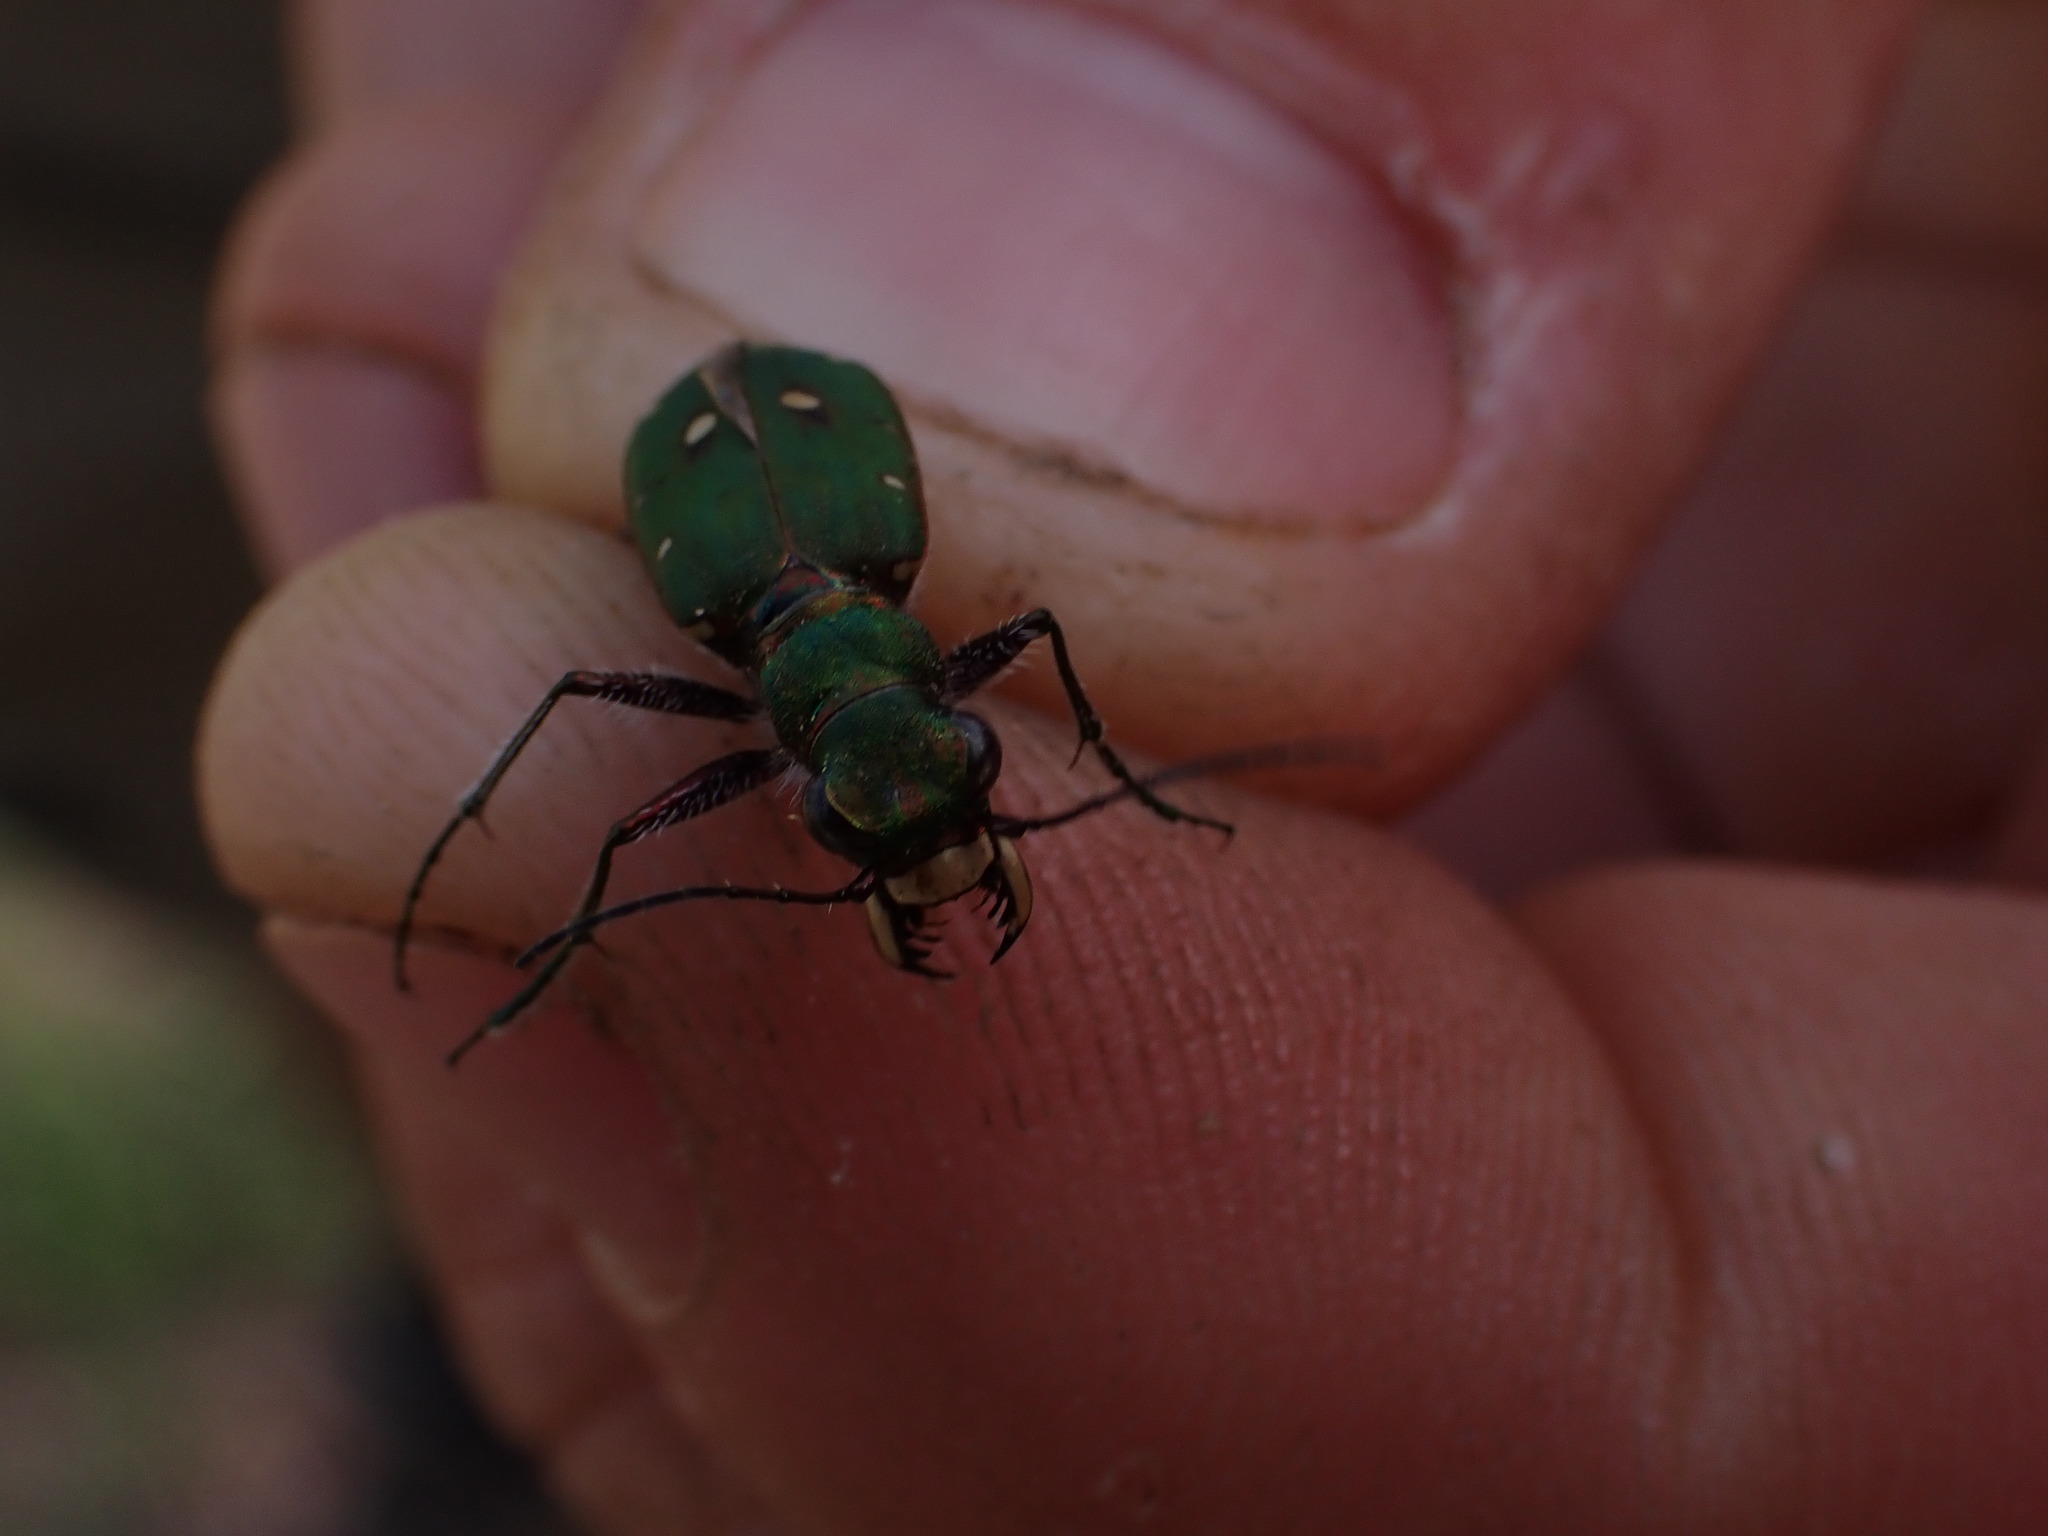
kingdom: Animalia
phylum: Arthropoda
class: Insecta
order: Coleoptera
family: Carabidae
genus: Cicindela
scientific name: Cicindela campestris
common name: Common tiger beetle
